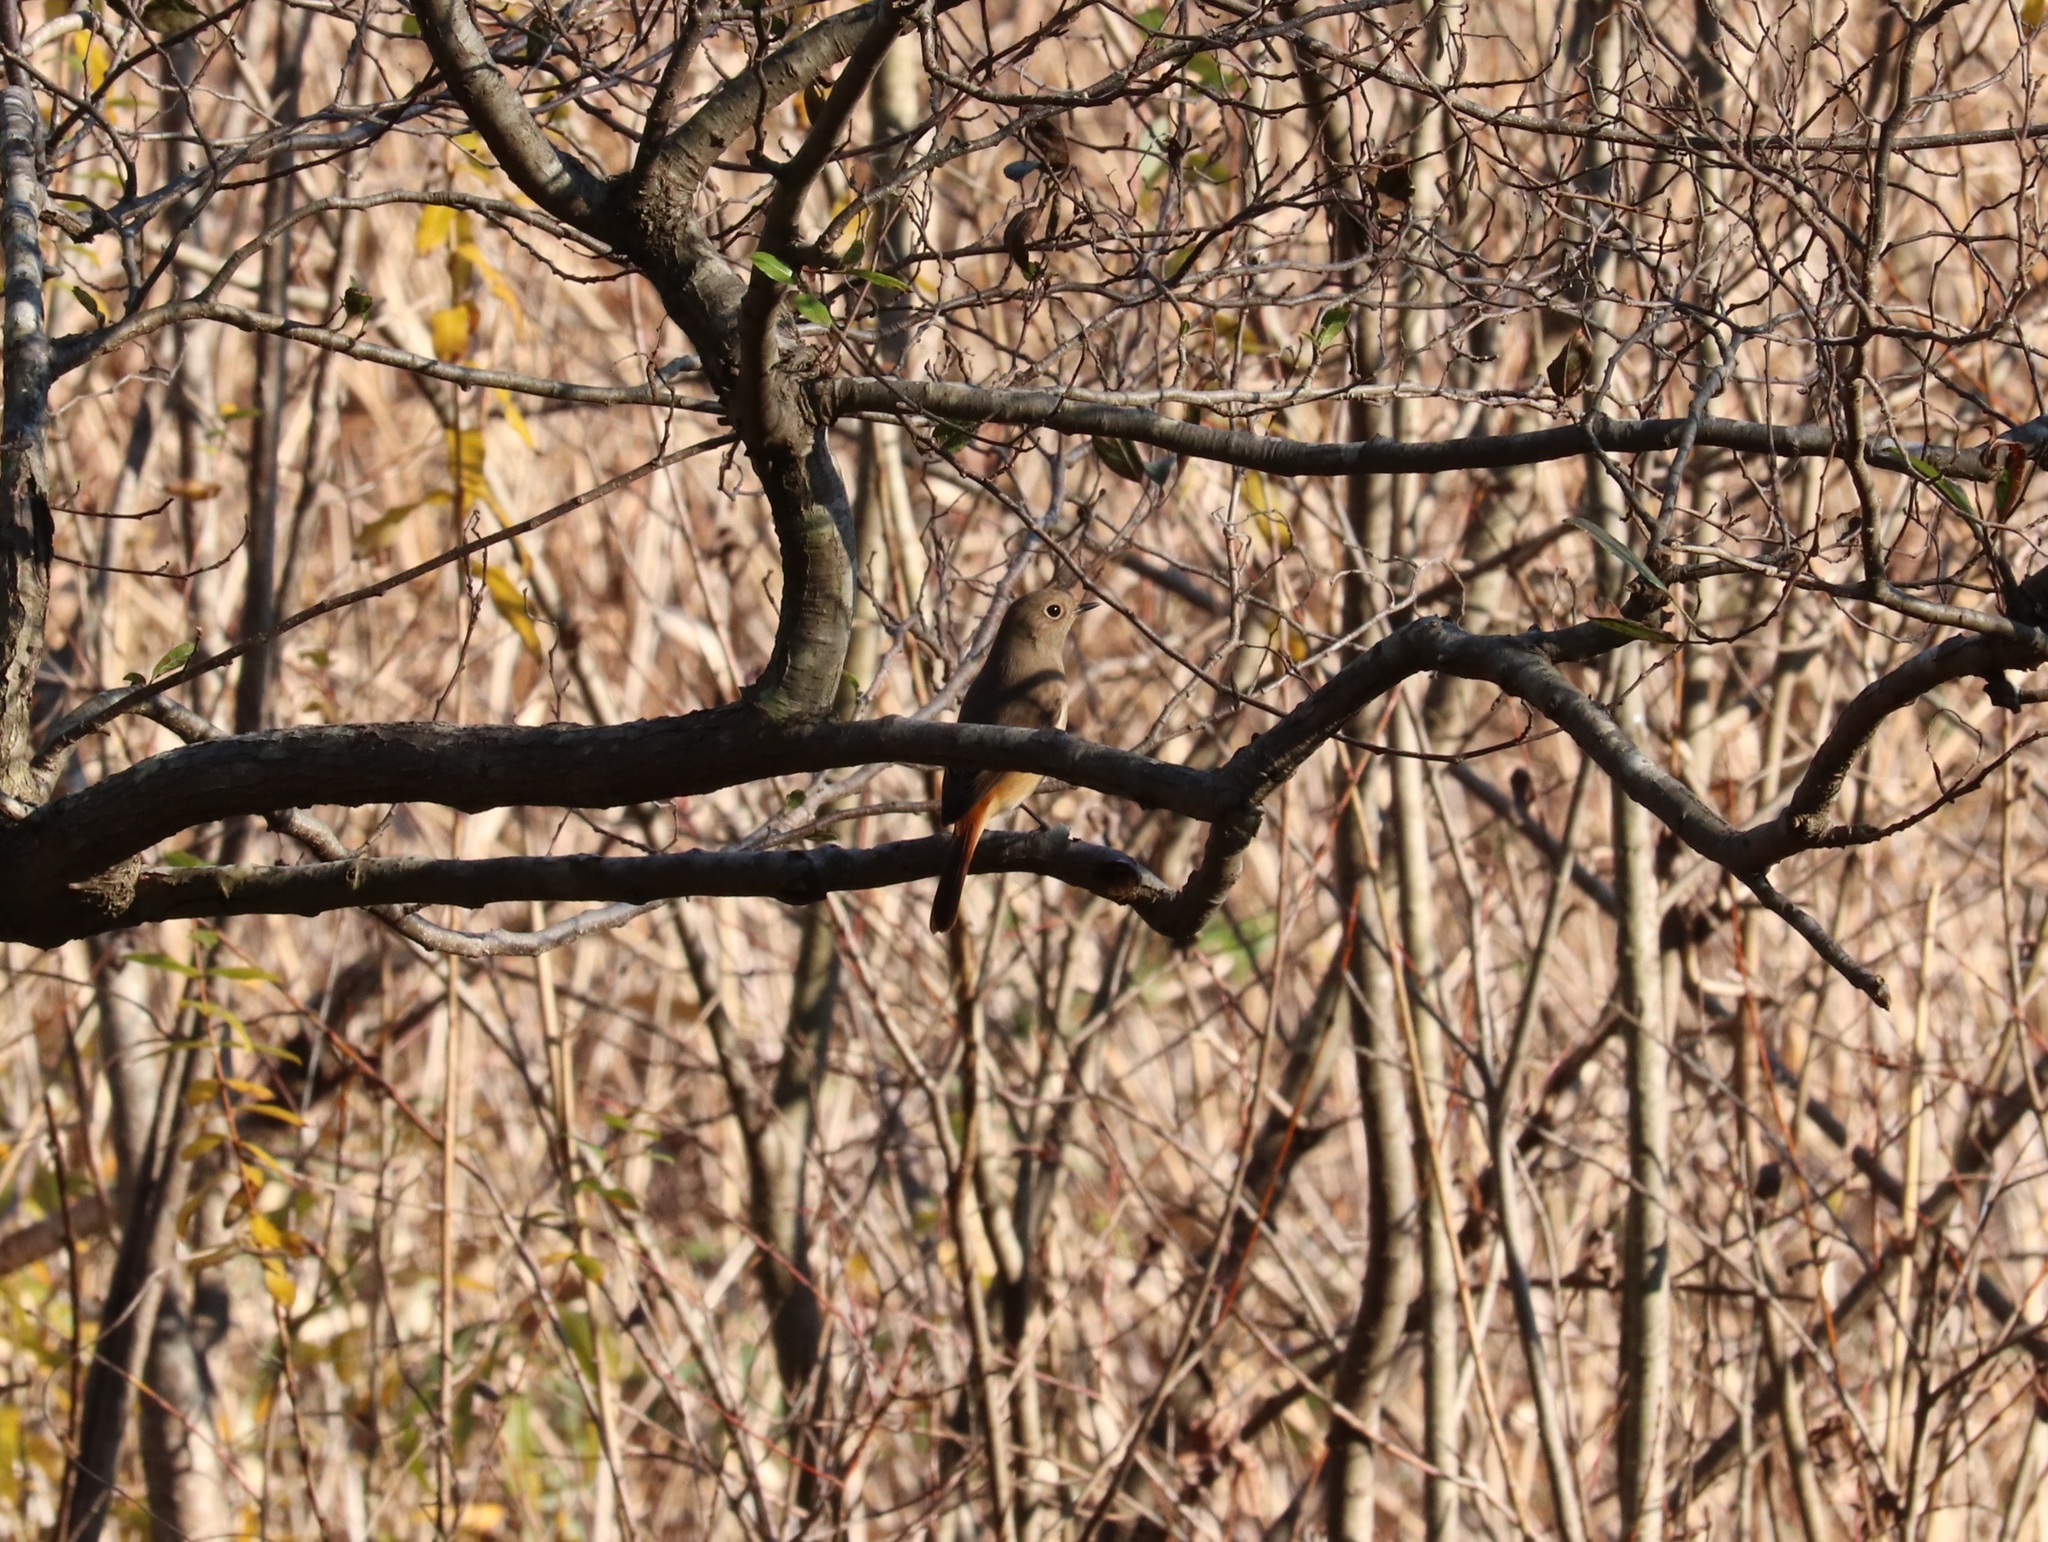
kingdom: Animalia
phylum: Chordata
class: Aves
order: Passeriformes
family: Muscicapidae
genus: Phoenicurus
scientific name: Phoenicurus auroreus
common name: Daurian redstart
